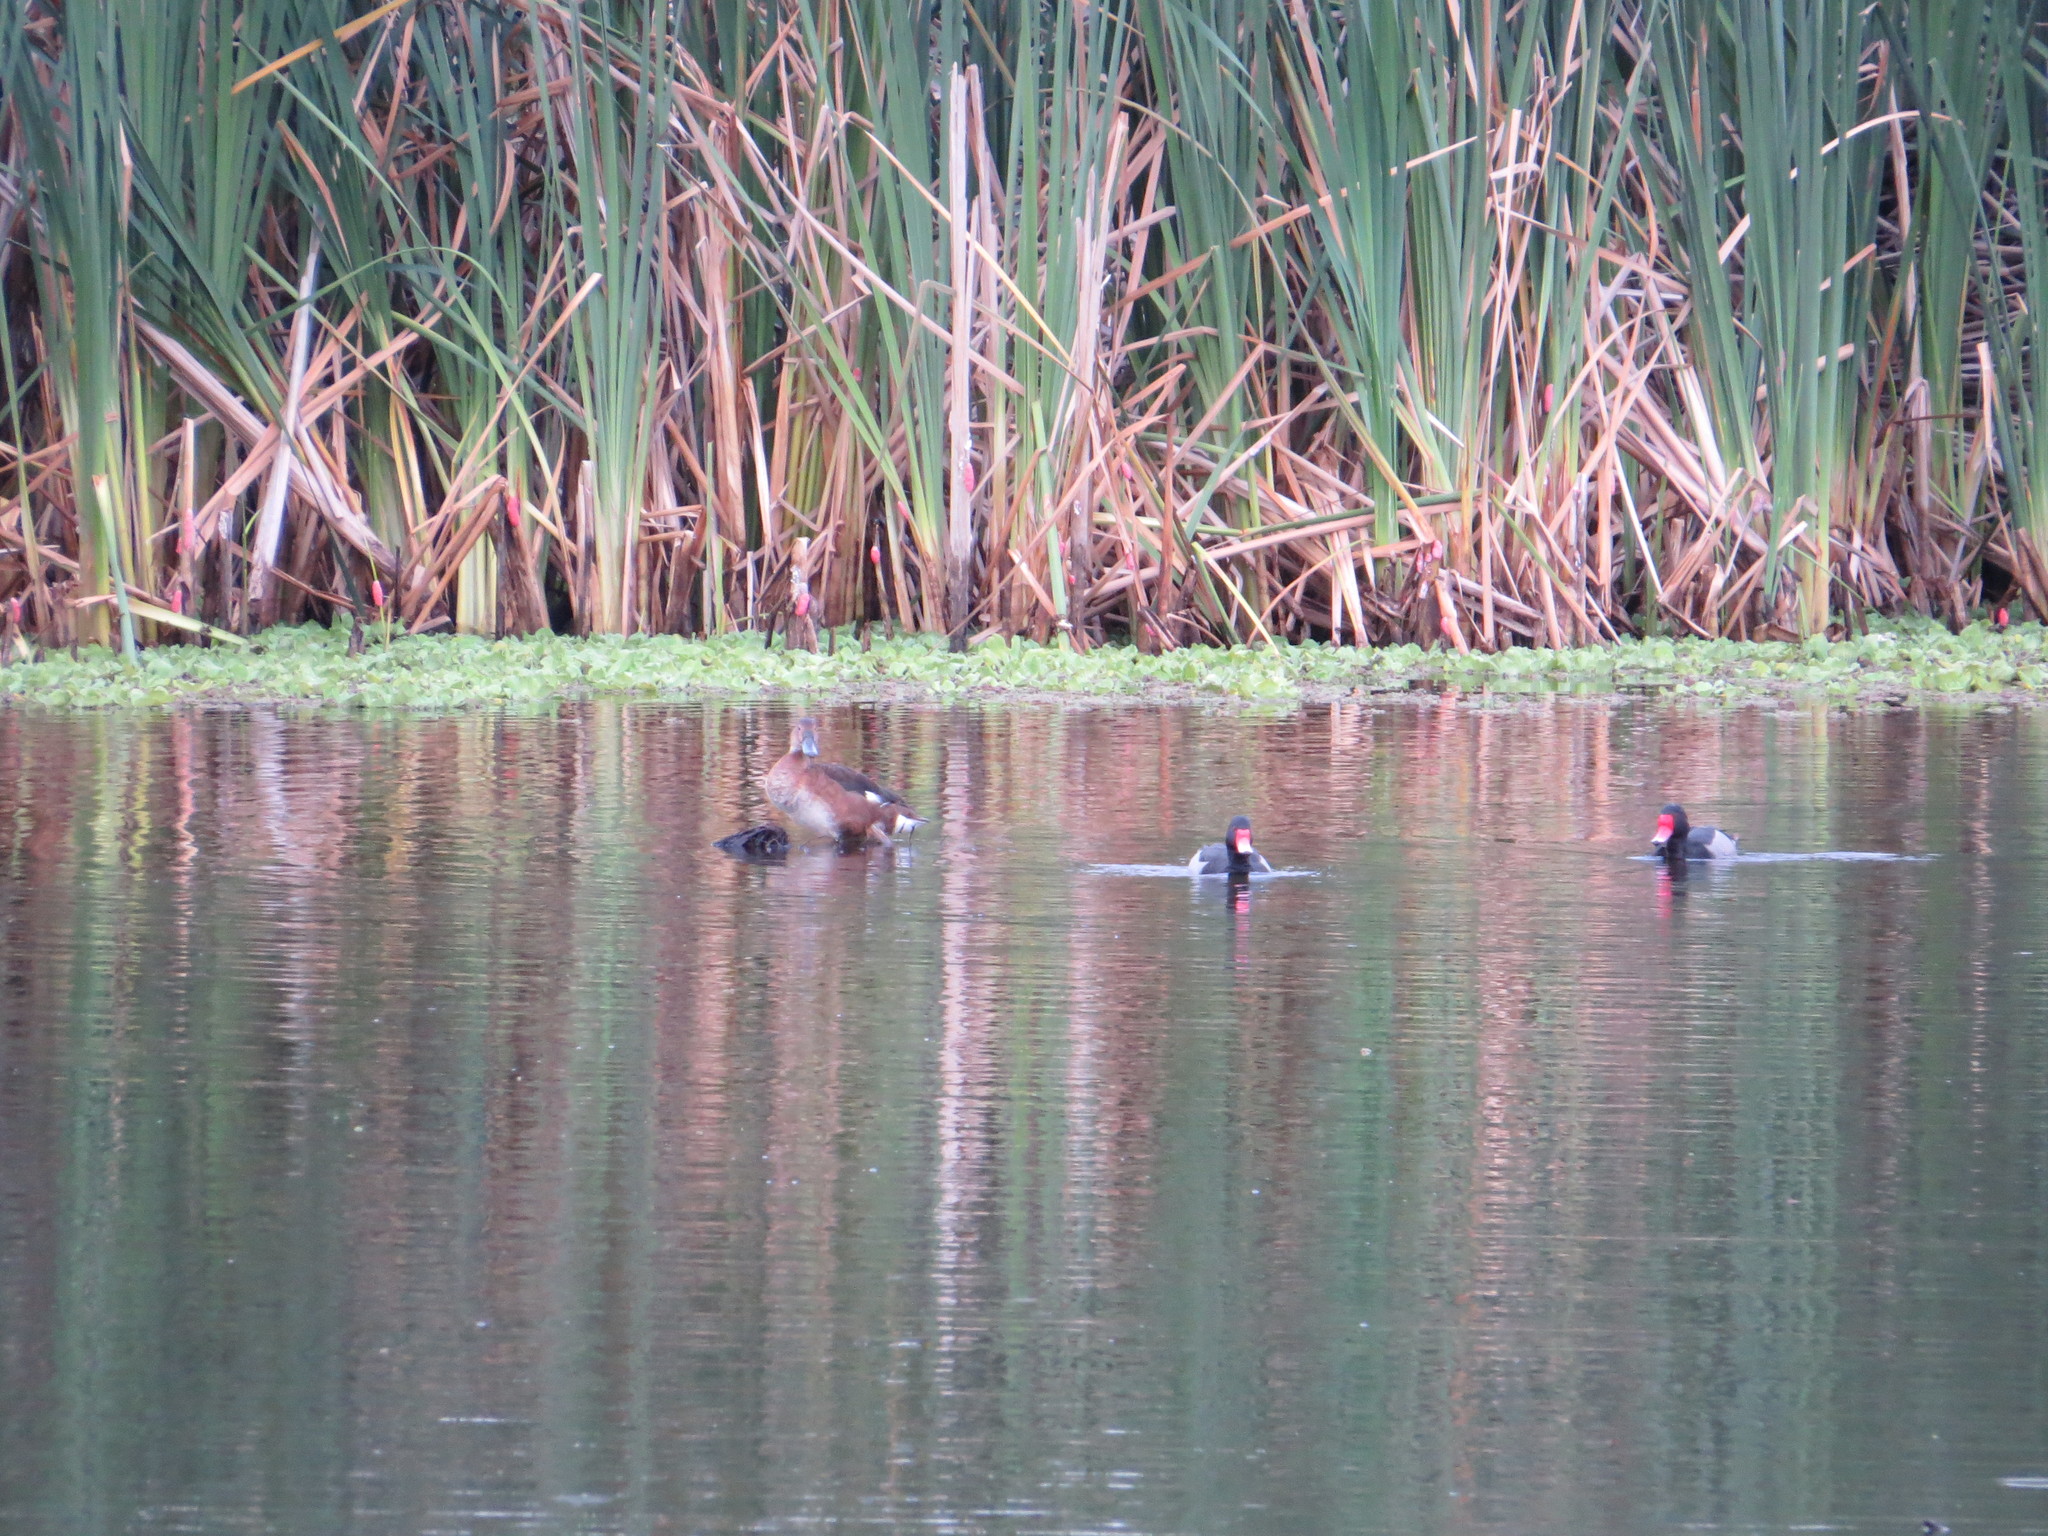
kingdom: Animalia
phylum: Chordata
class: Aves
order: Anseriformes
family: Anatidae
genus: Netta
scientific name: Netta peposaca
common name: Rosy-billed pochard
